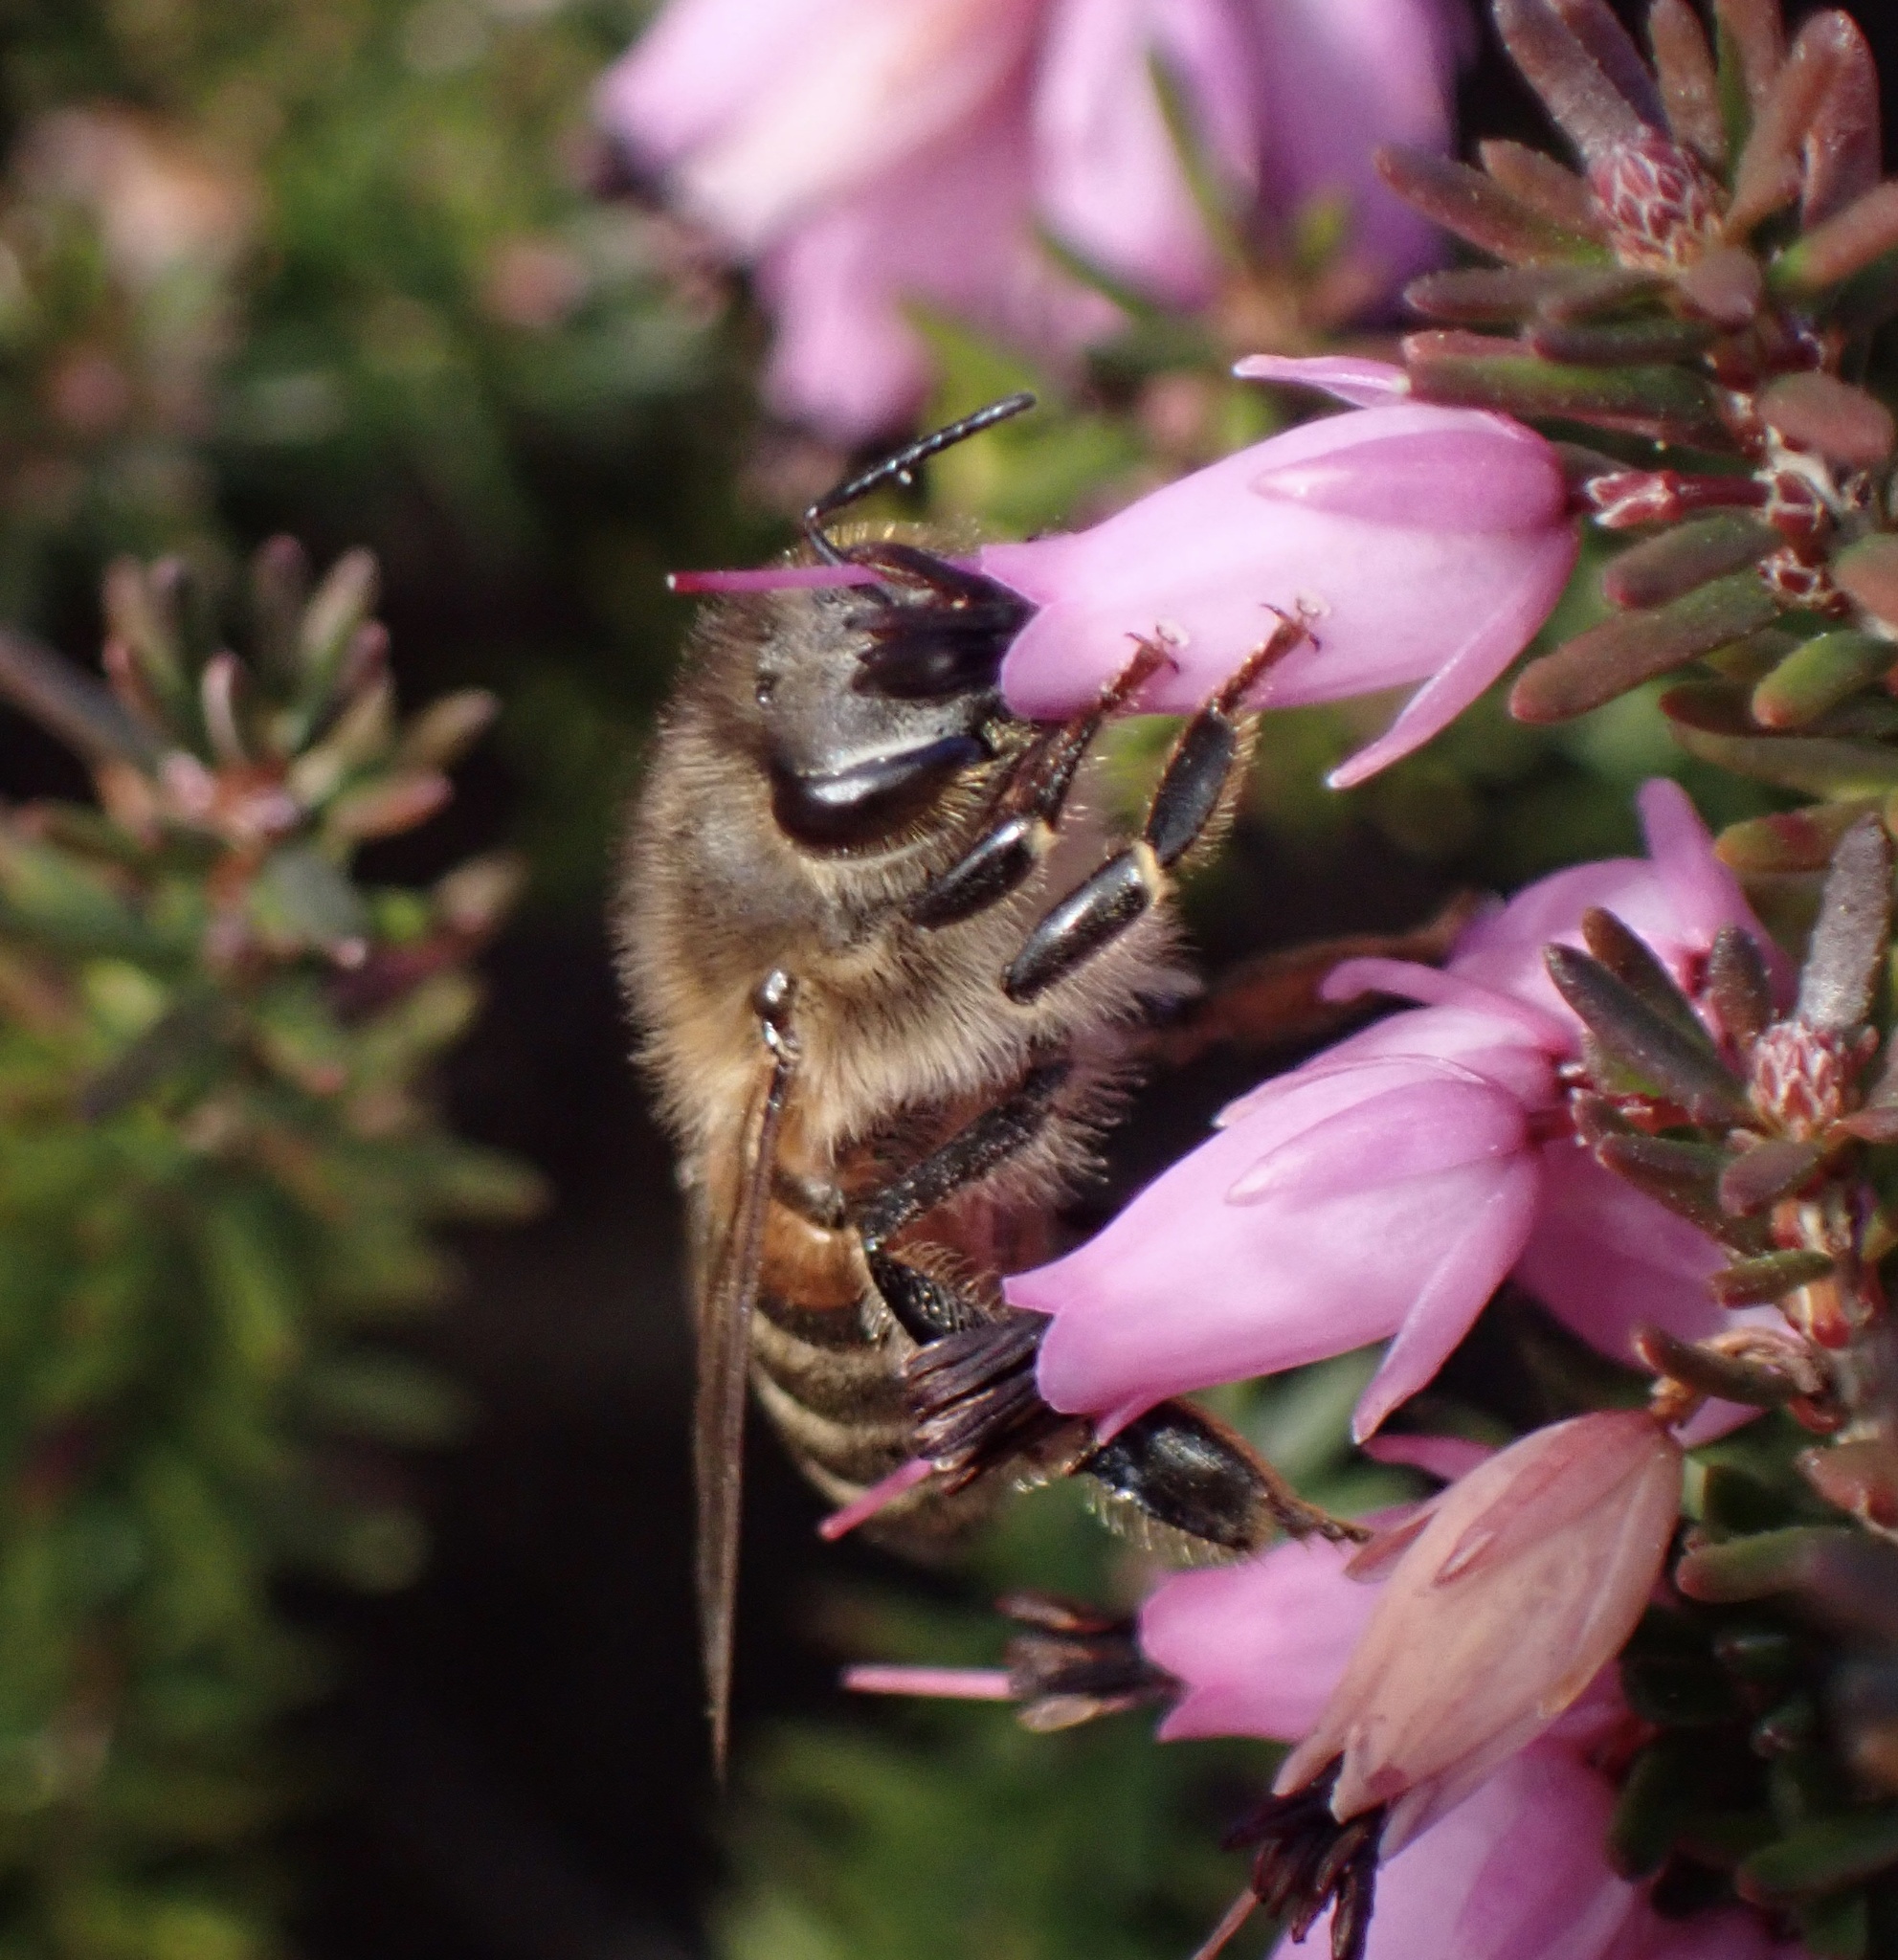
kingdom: Animalia
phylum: Arthropoda
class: Insecta
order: Hymenoptera
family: Apidae
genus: Apis
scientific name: Apis mellifera
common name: Honey bee
